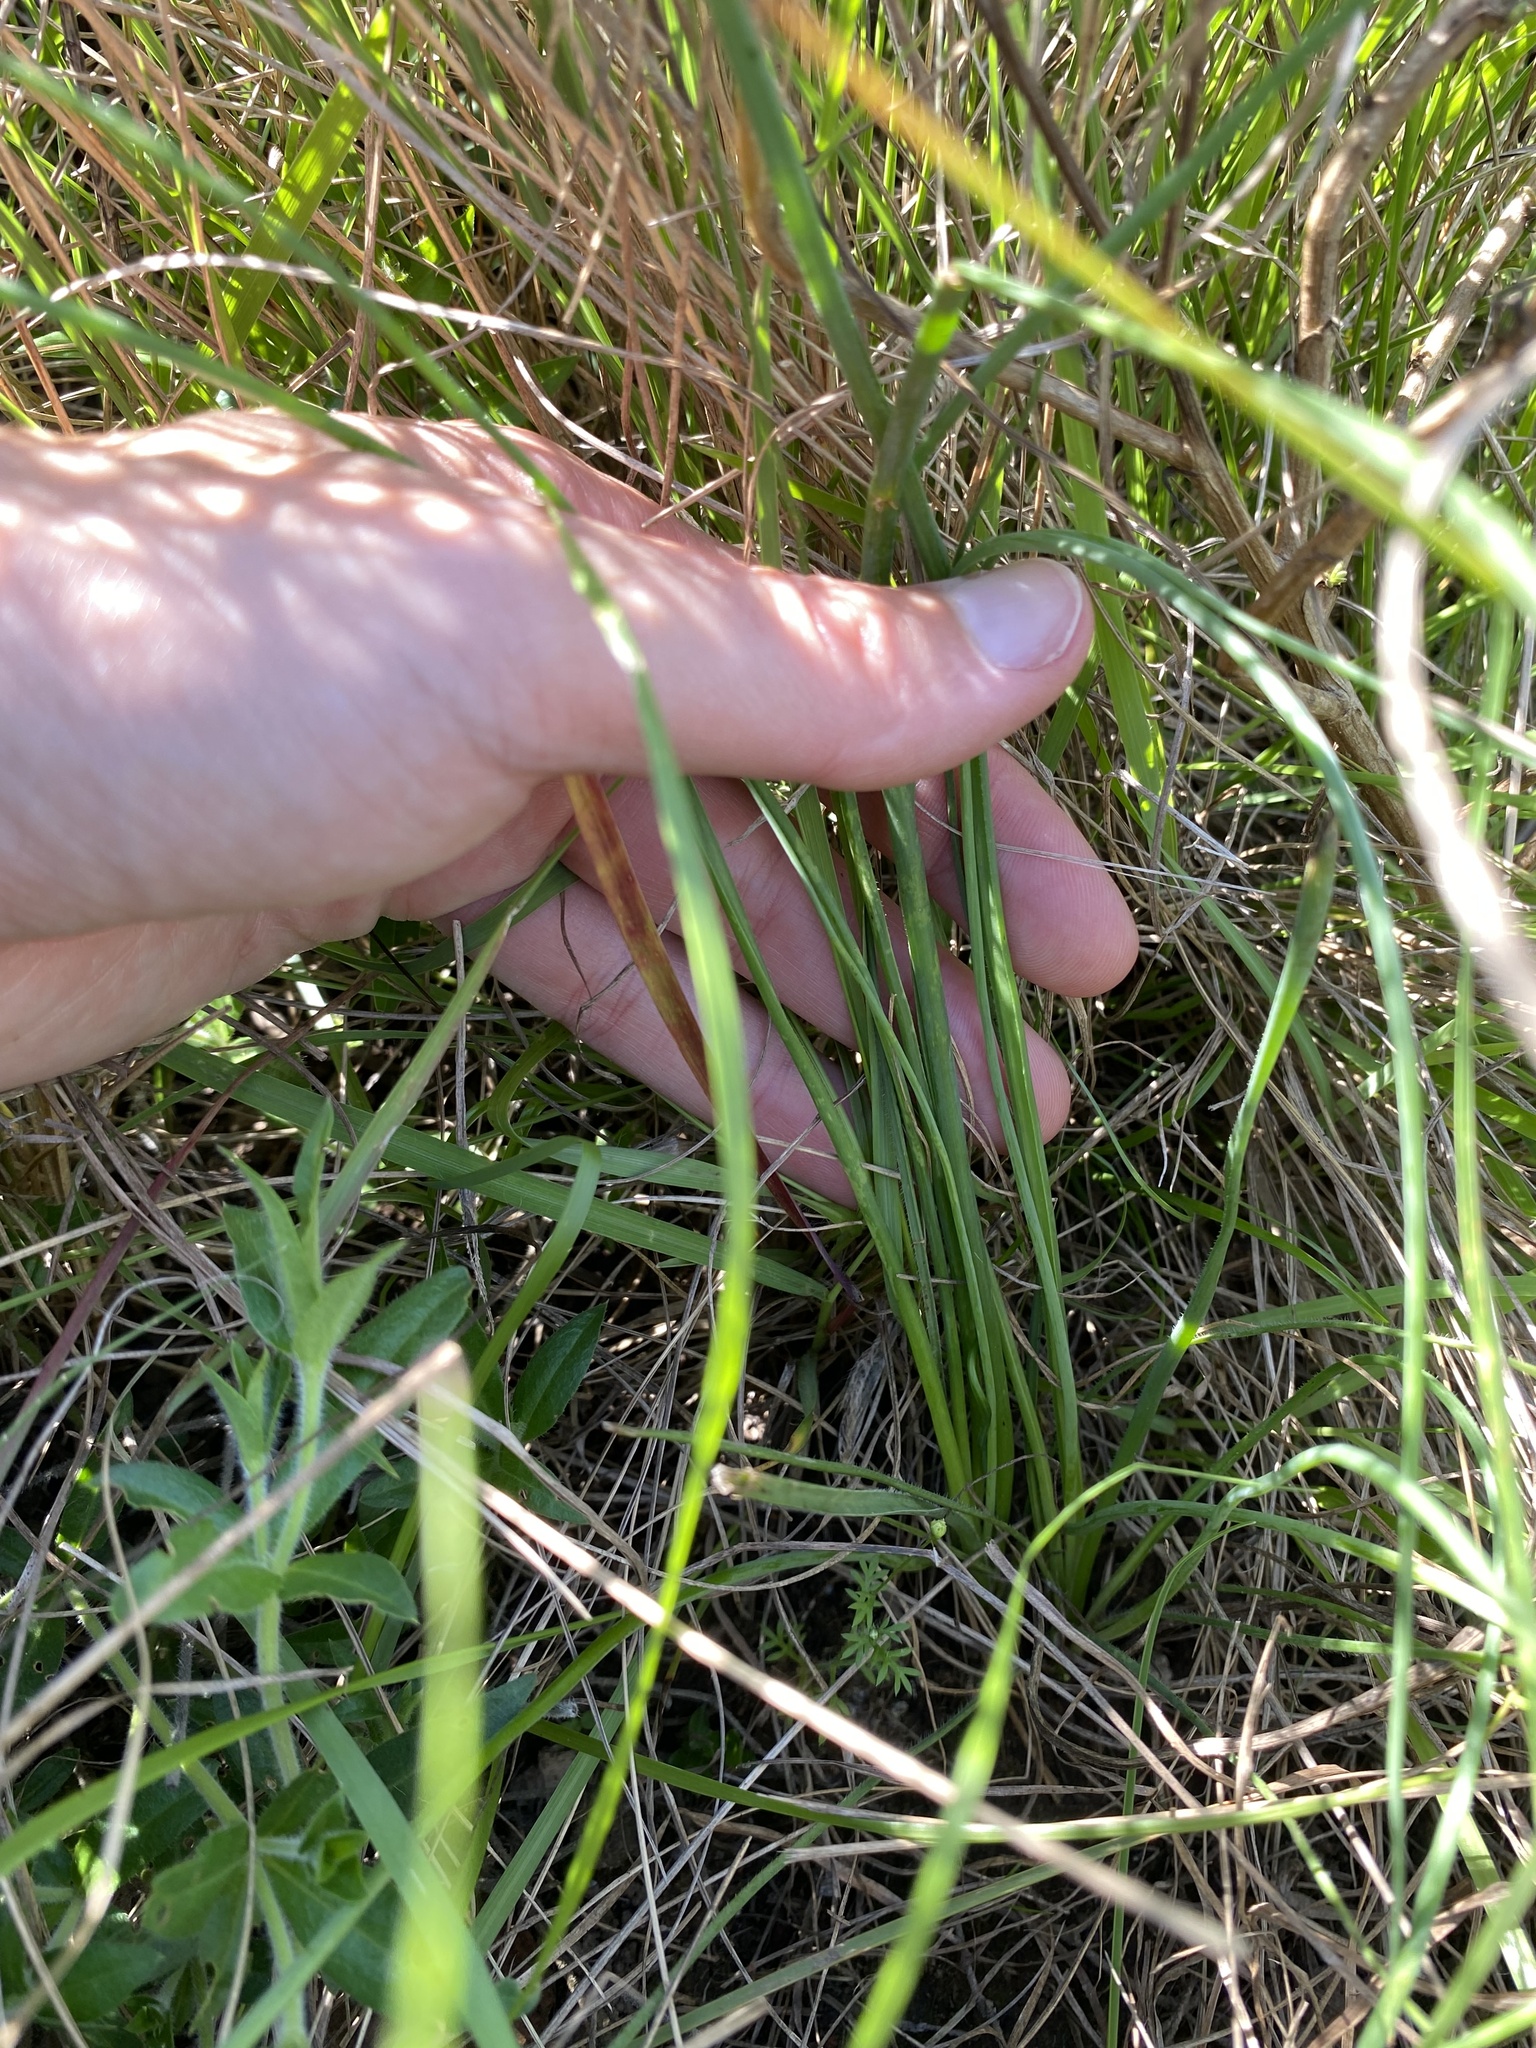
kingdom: Plantae
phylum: Tracheophyta
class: Liliopsida
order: Asparagales
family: Asphodelaceae
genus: Trachyandra
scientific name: Trachyandra asperata
